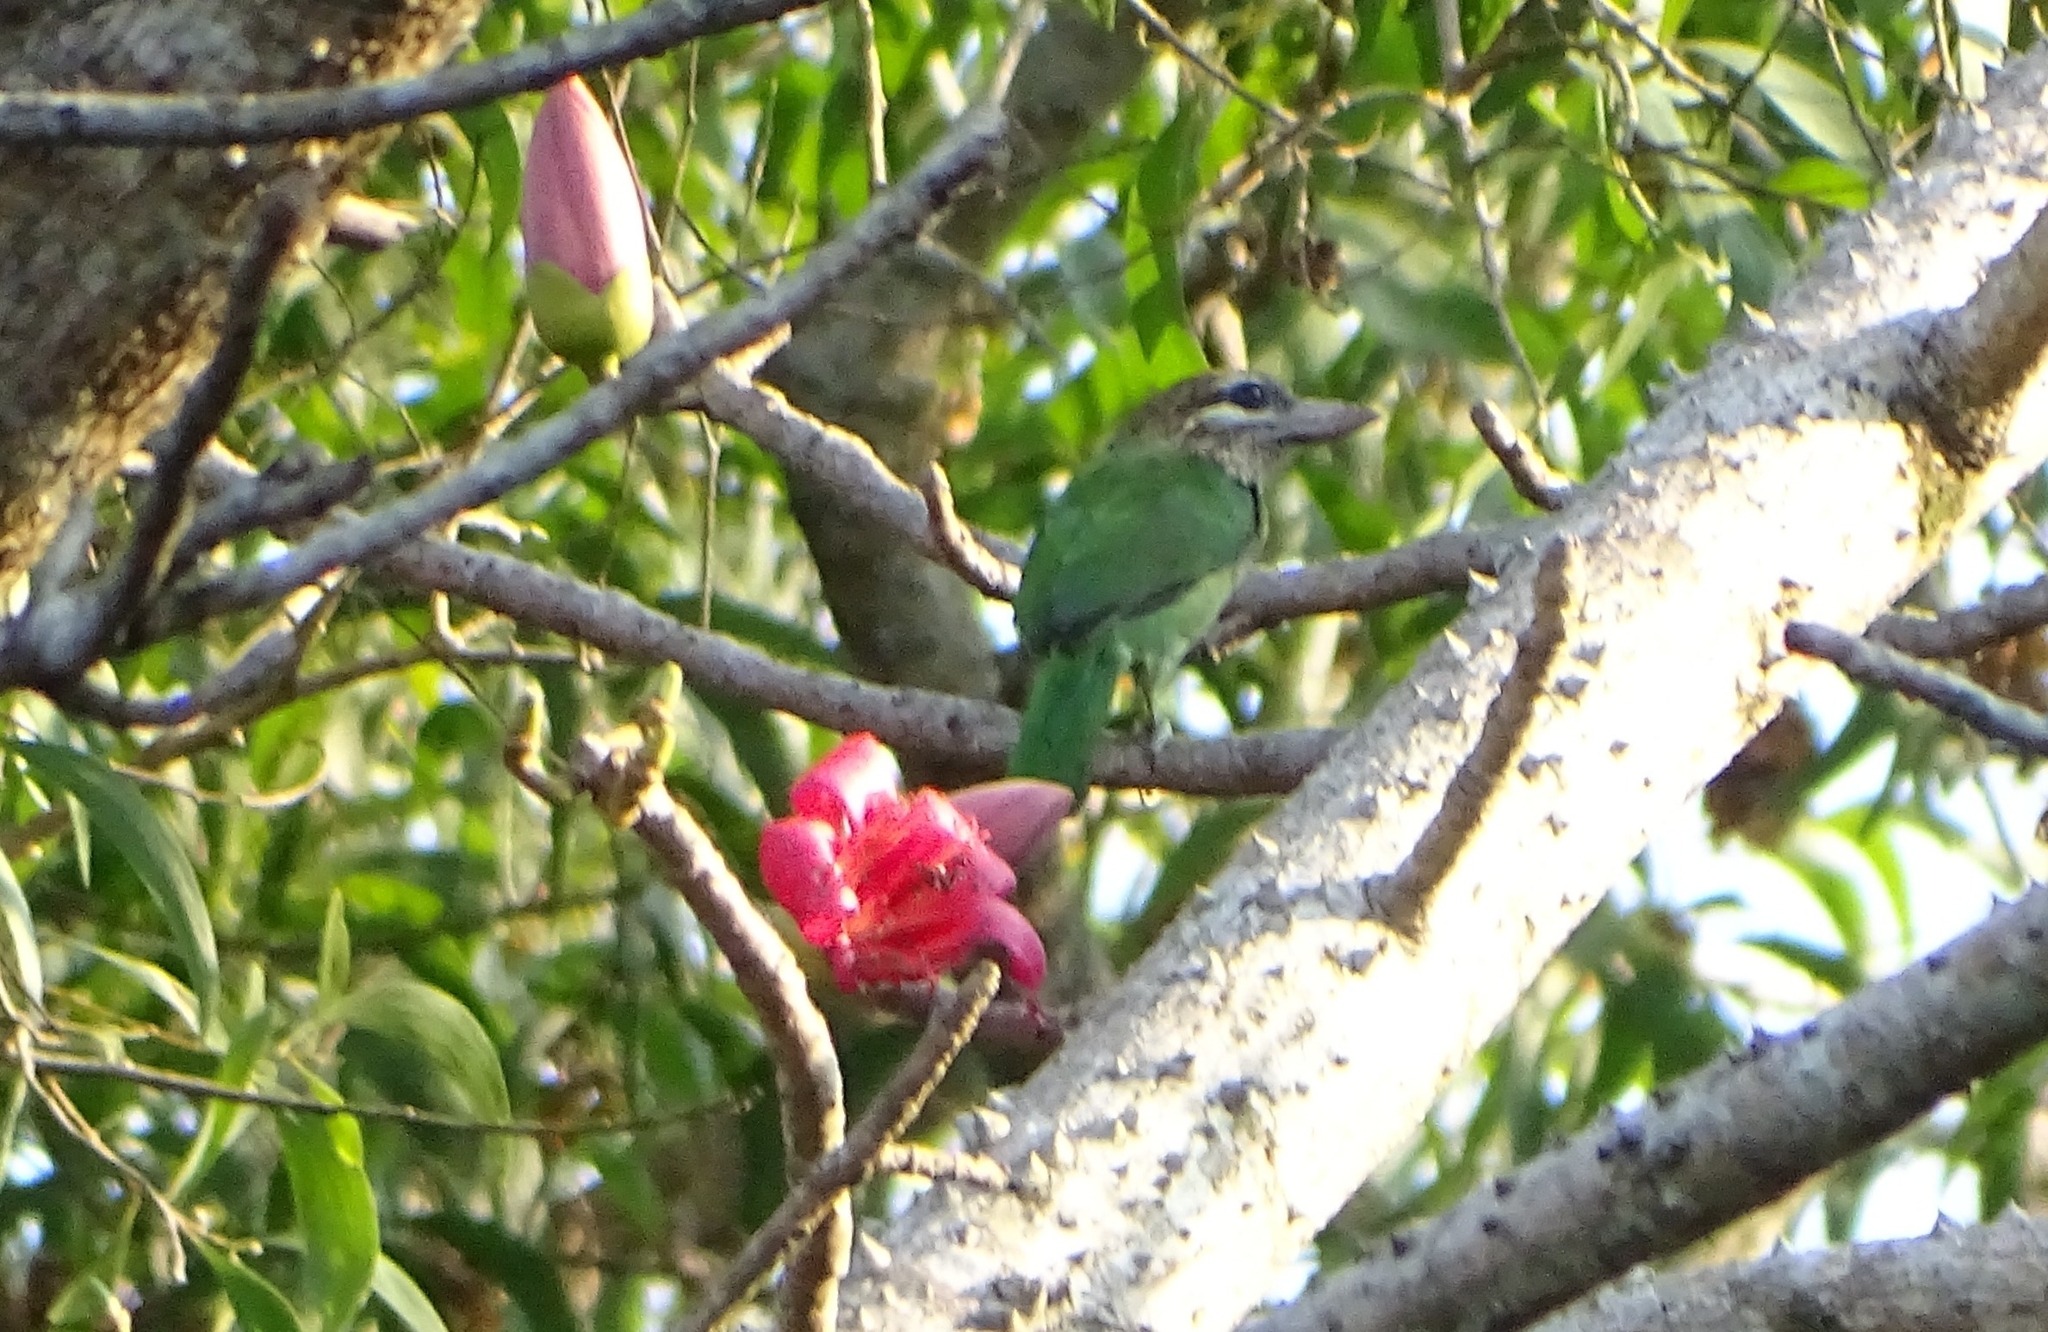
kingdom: Animalia
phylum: Chordata
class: Aves
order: Piciformes
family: Megalaimidae
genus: Psilopogon
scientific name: Psilopogon viridis
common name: White-cheeked barbet
